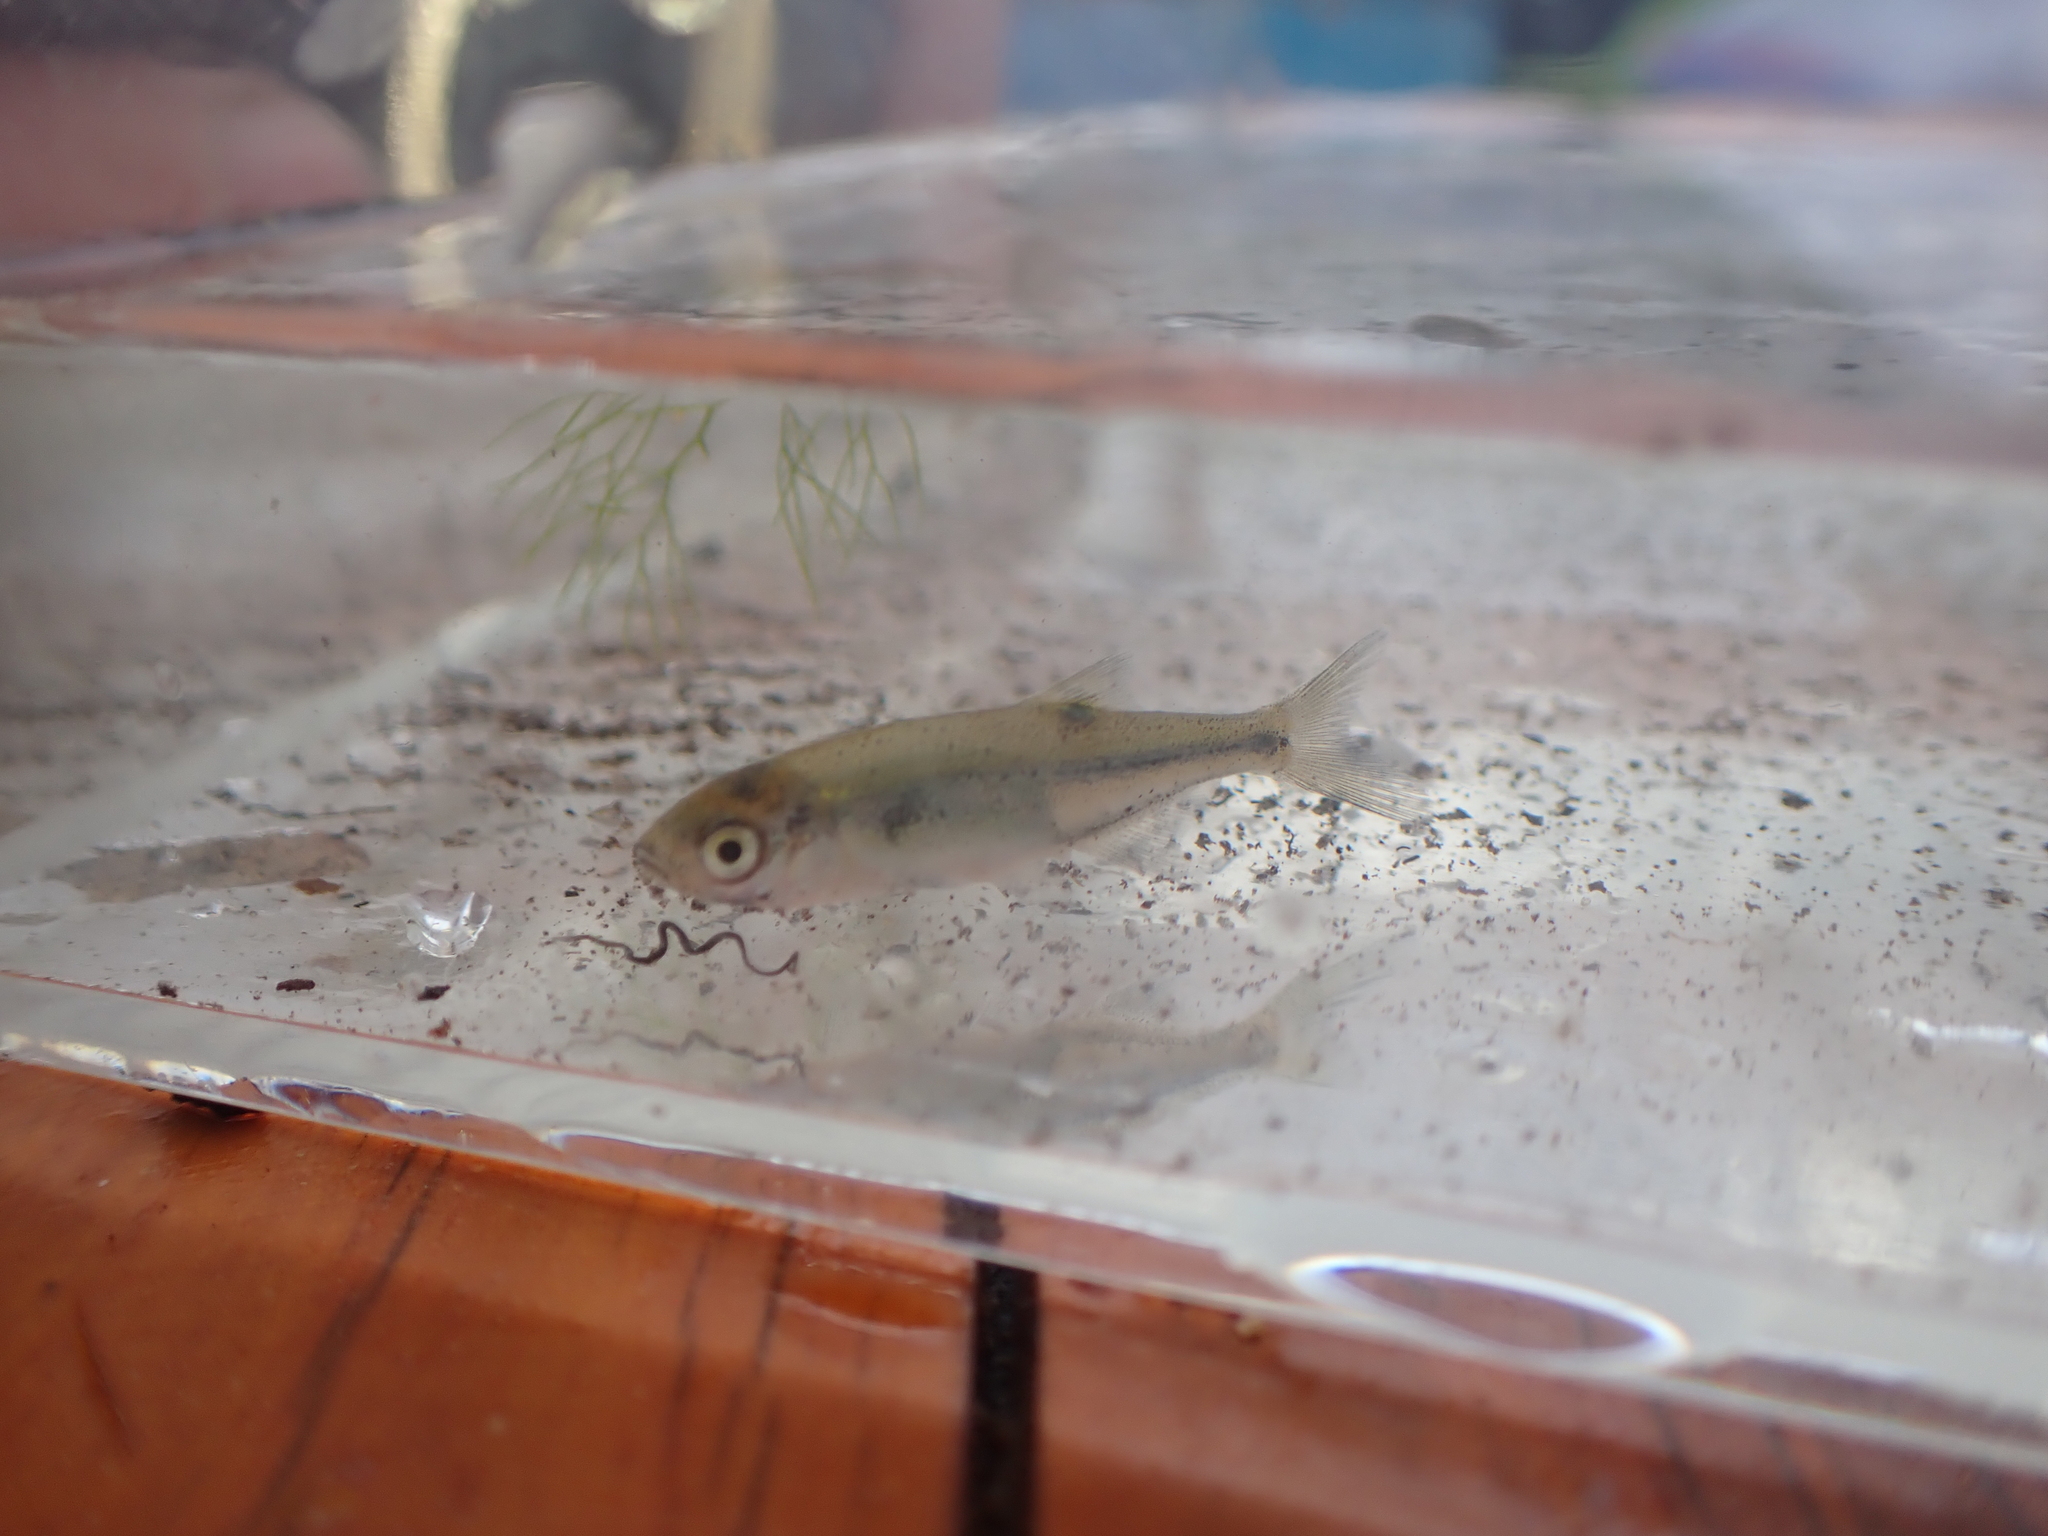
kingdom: Animalia
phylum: Chordata
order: Cypriniformes
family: Cyprinidae
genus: Richardsonius
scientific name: Richardsonius balteatus
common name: Redside shiner
